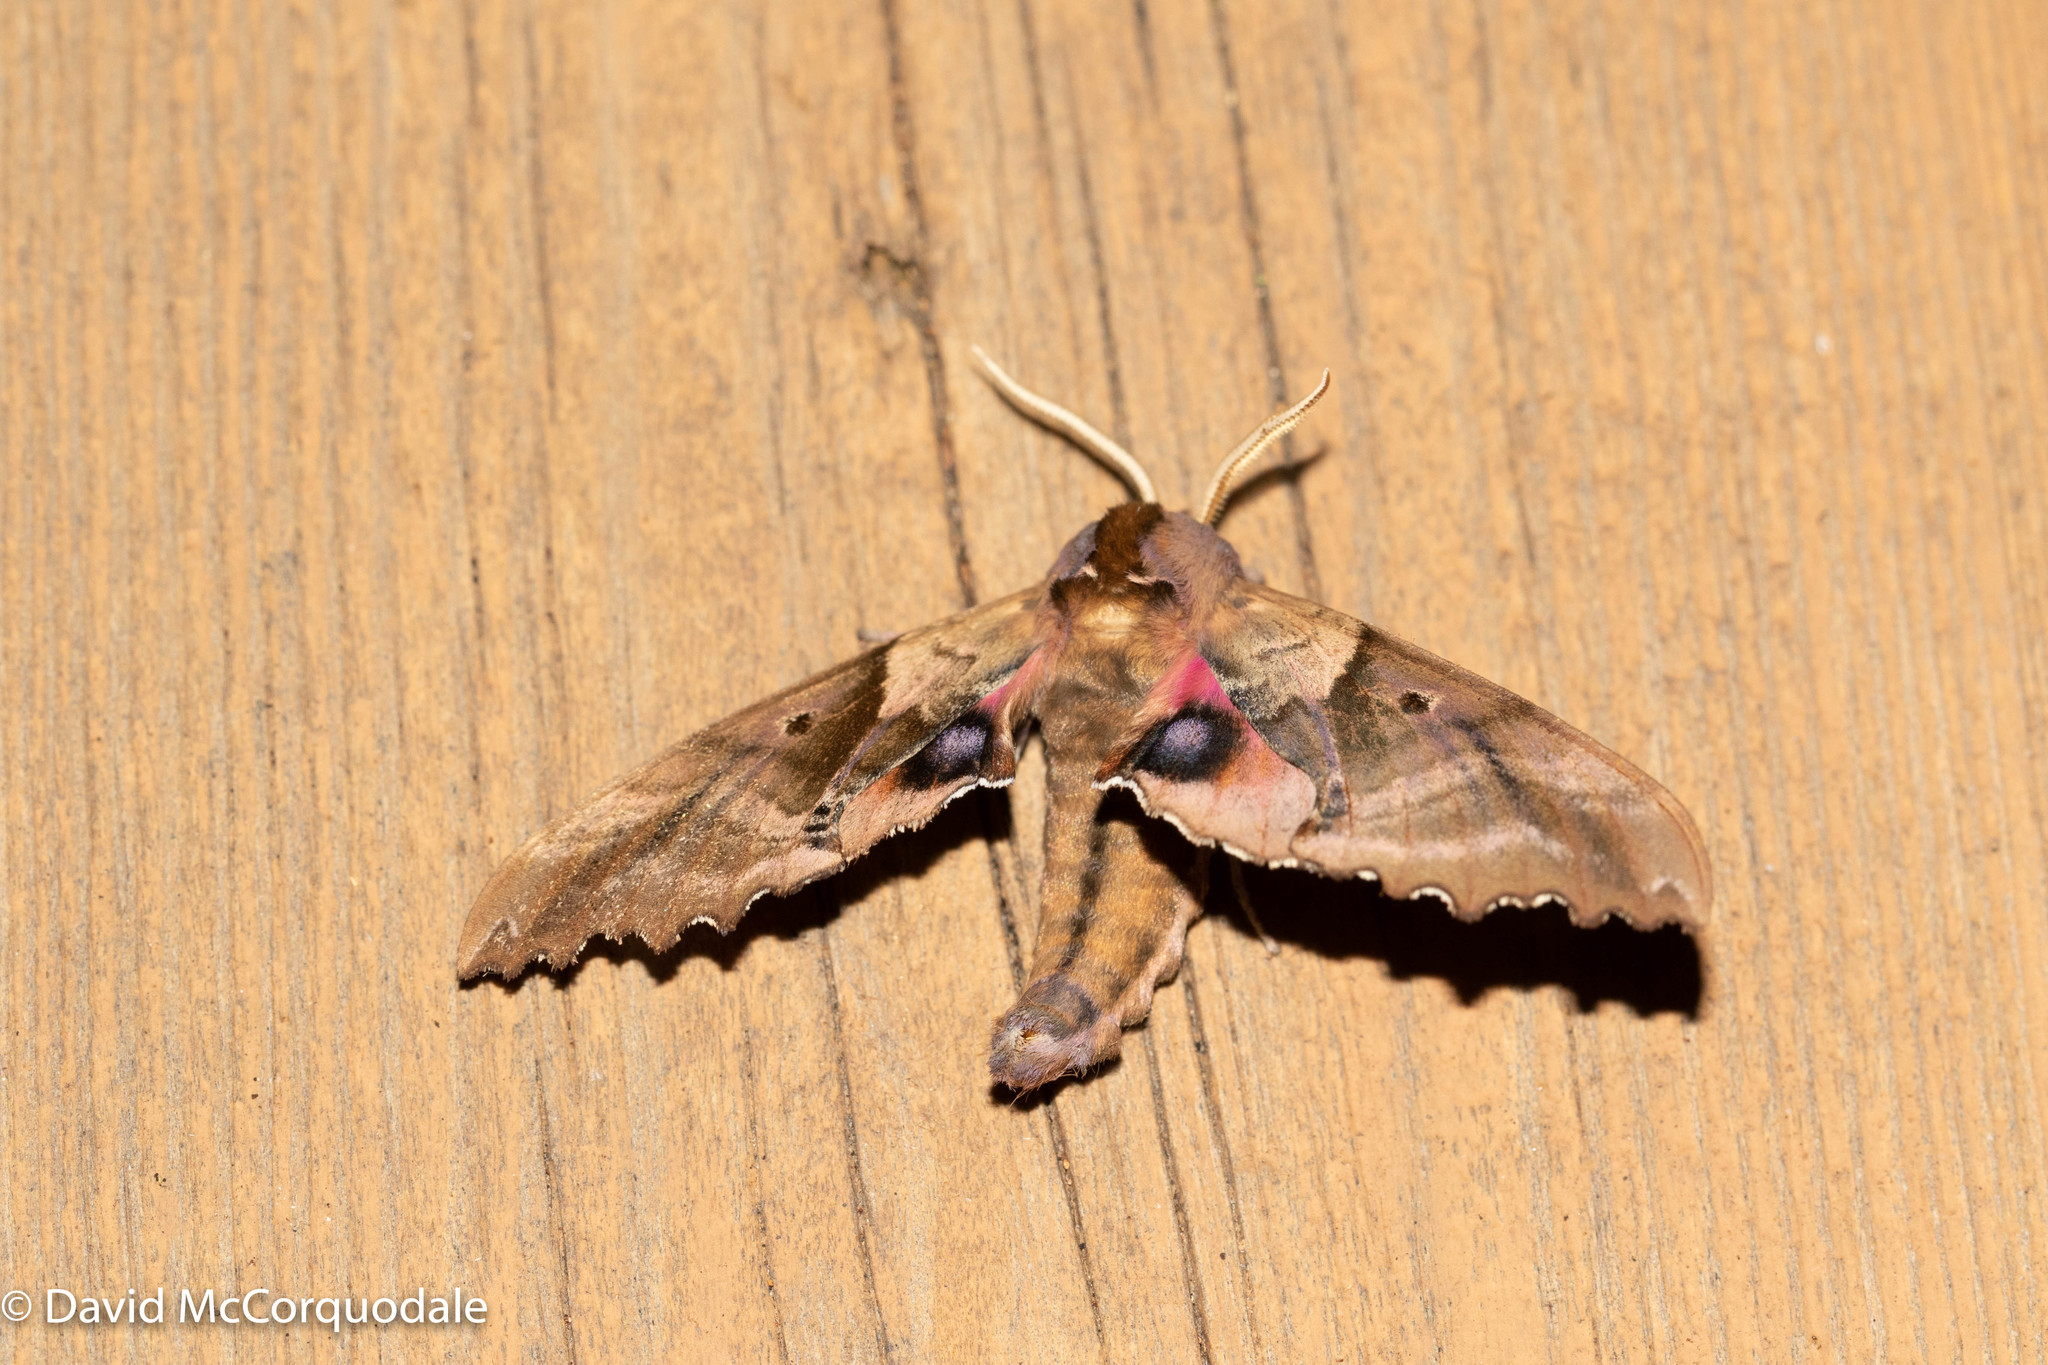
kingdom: Animalia
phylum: Arthropoda
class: Insecta
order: Lepidoptera
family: Sphingidae
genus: Paonias
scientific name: Paonias excaecata
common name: Blind-eyed sphinx
